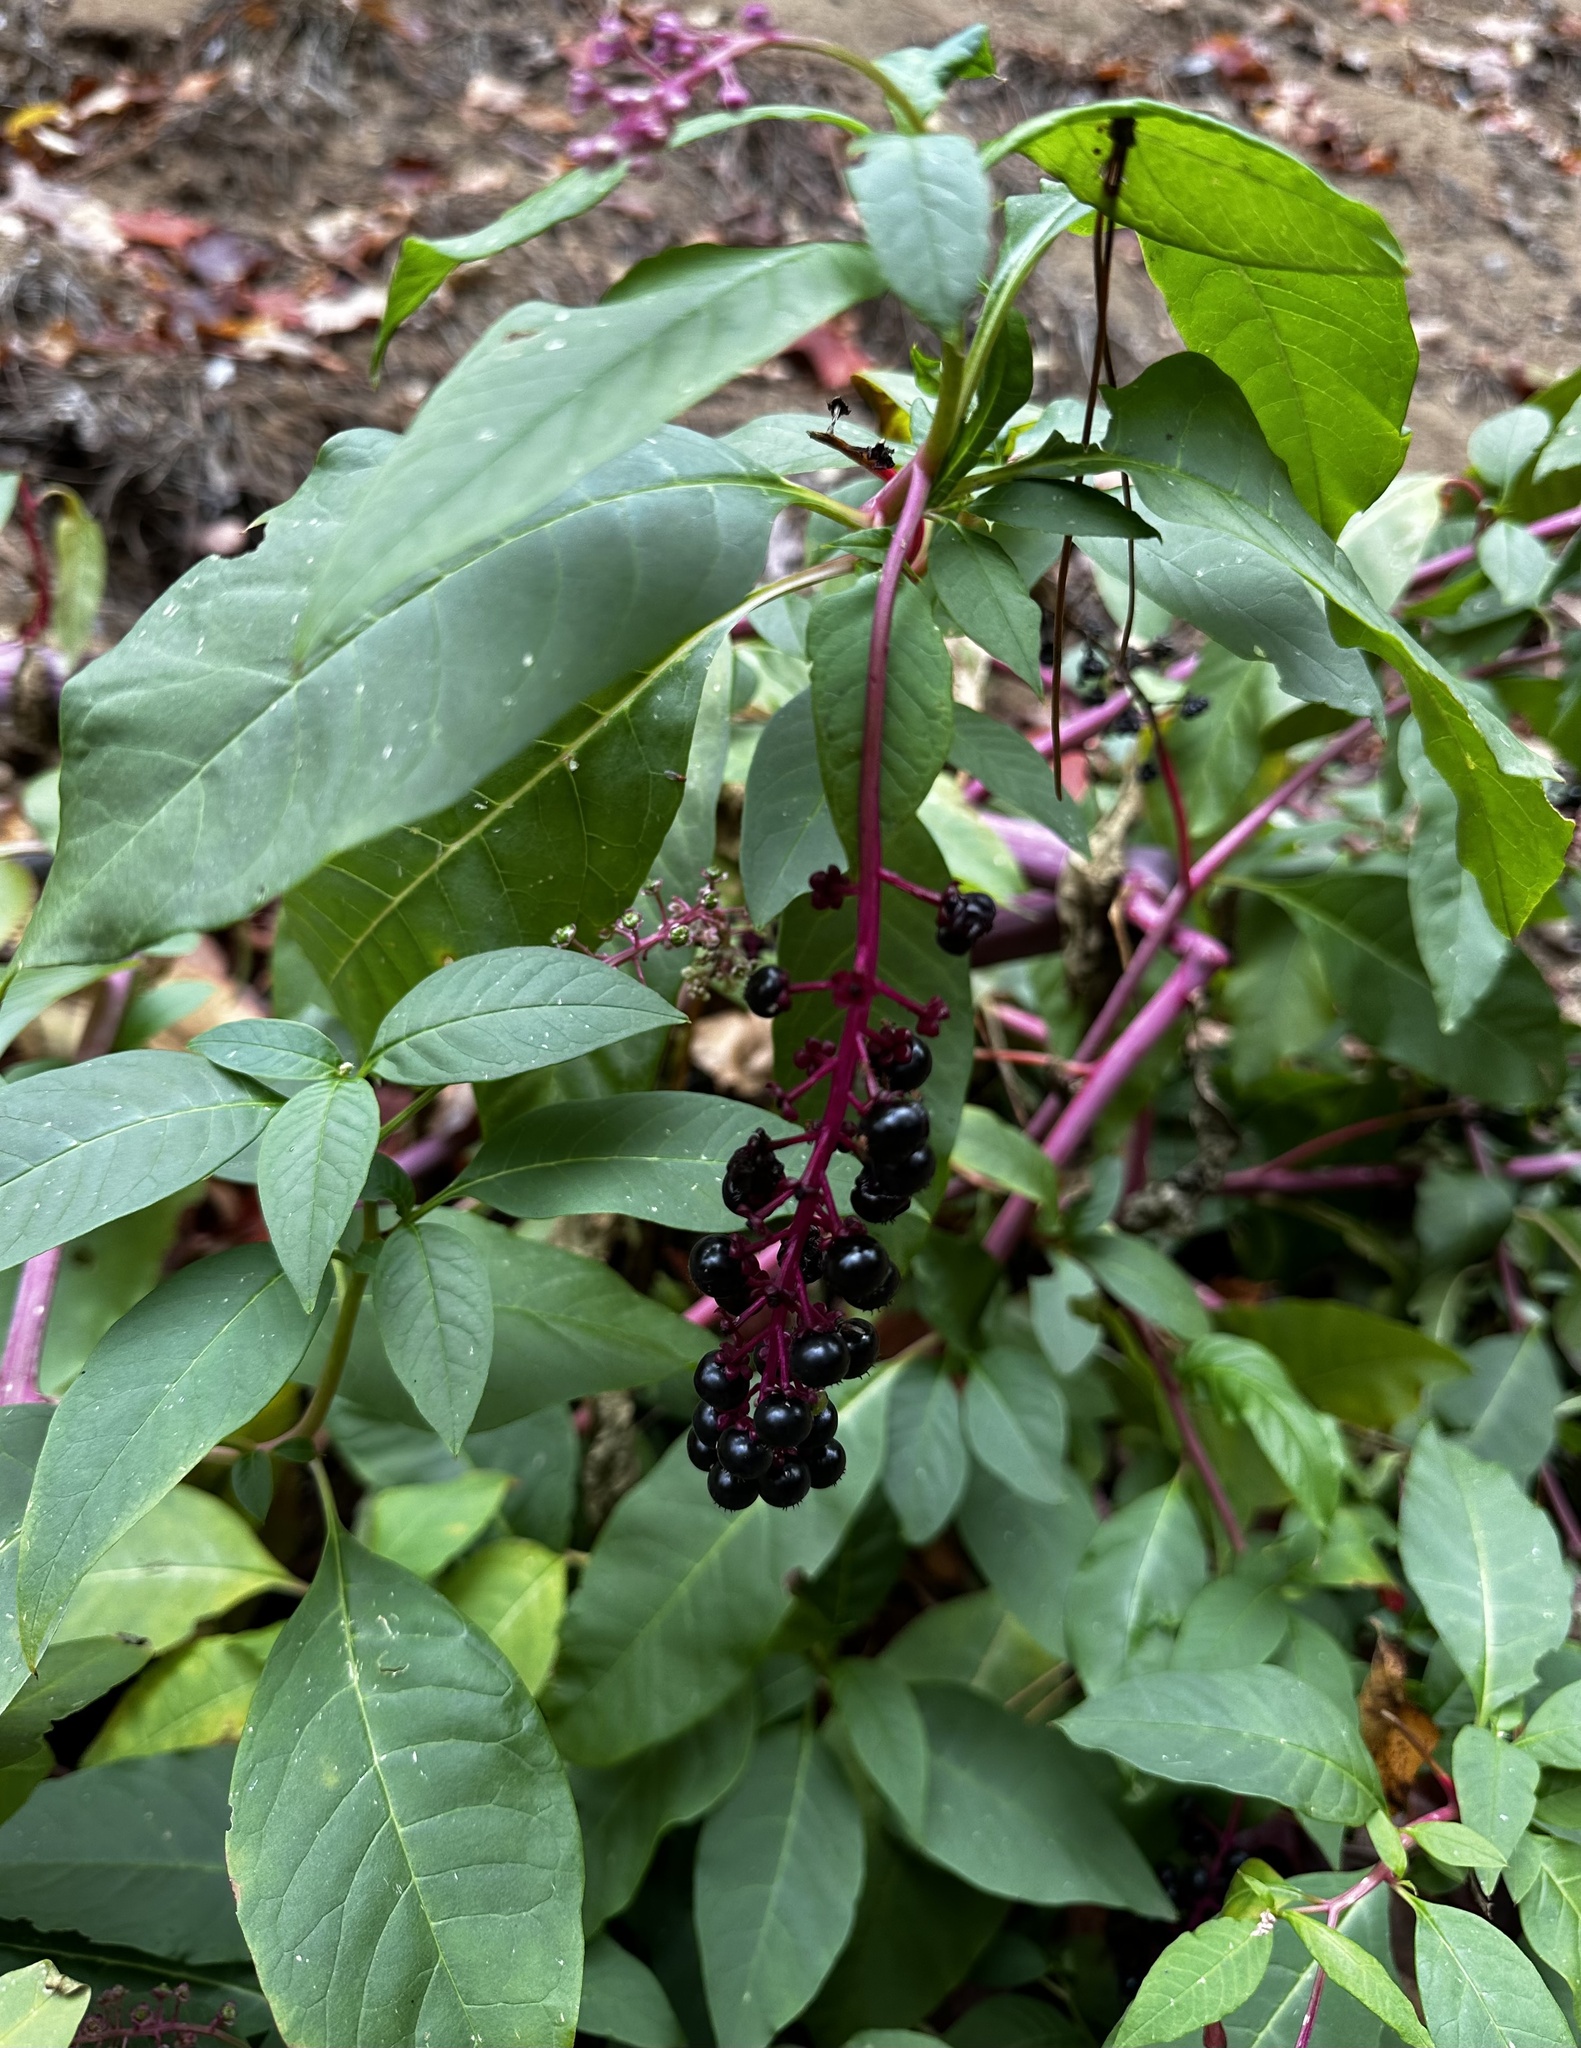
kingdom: Plantae
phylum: Tracheophyta
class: Magnoliopsida
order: Caryophyllales
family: Phytolaccaceae
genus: Phytolacca
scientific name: Phytolacca americana
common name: American pokeweed
